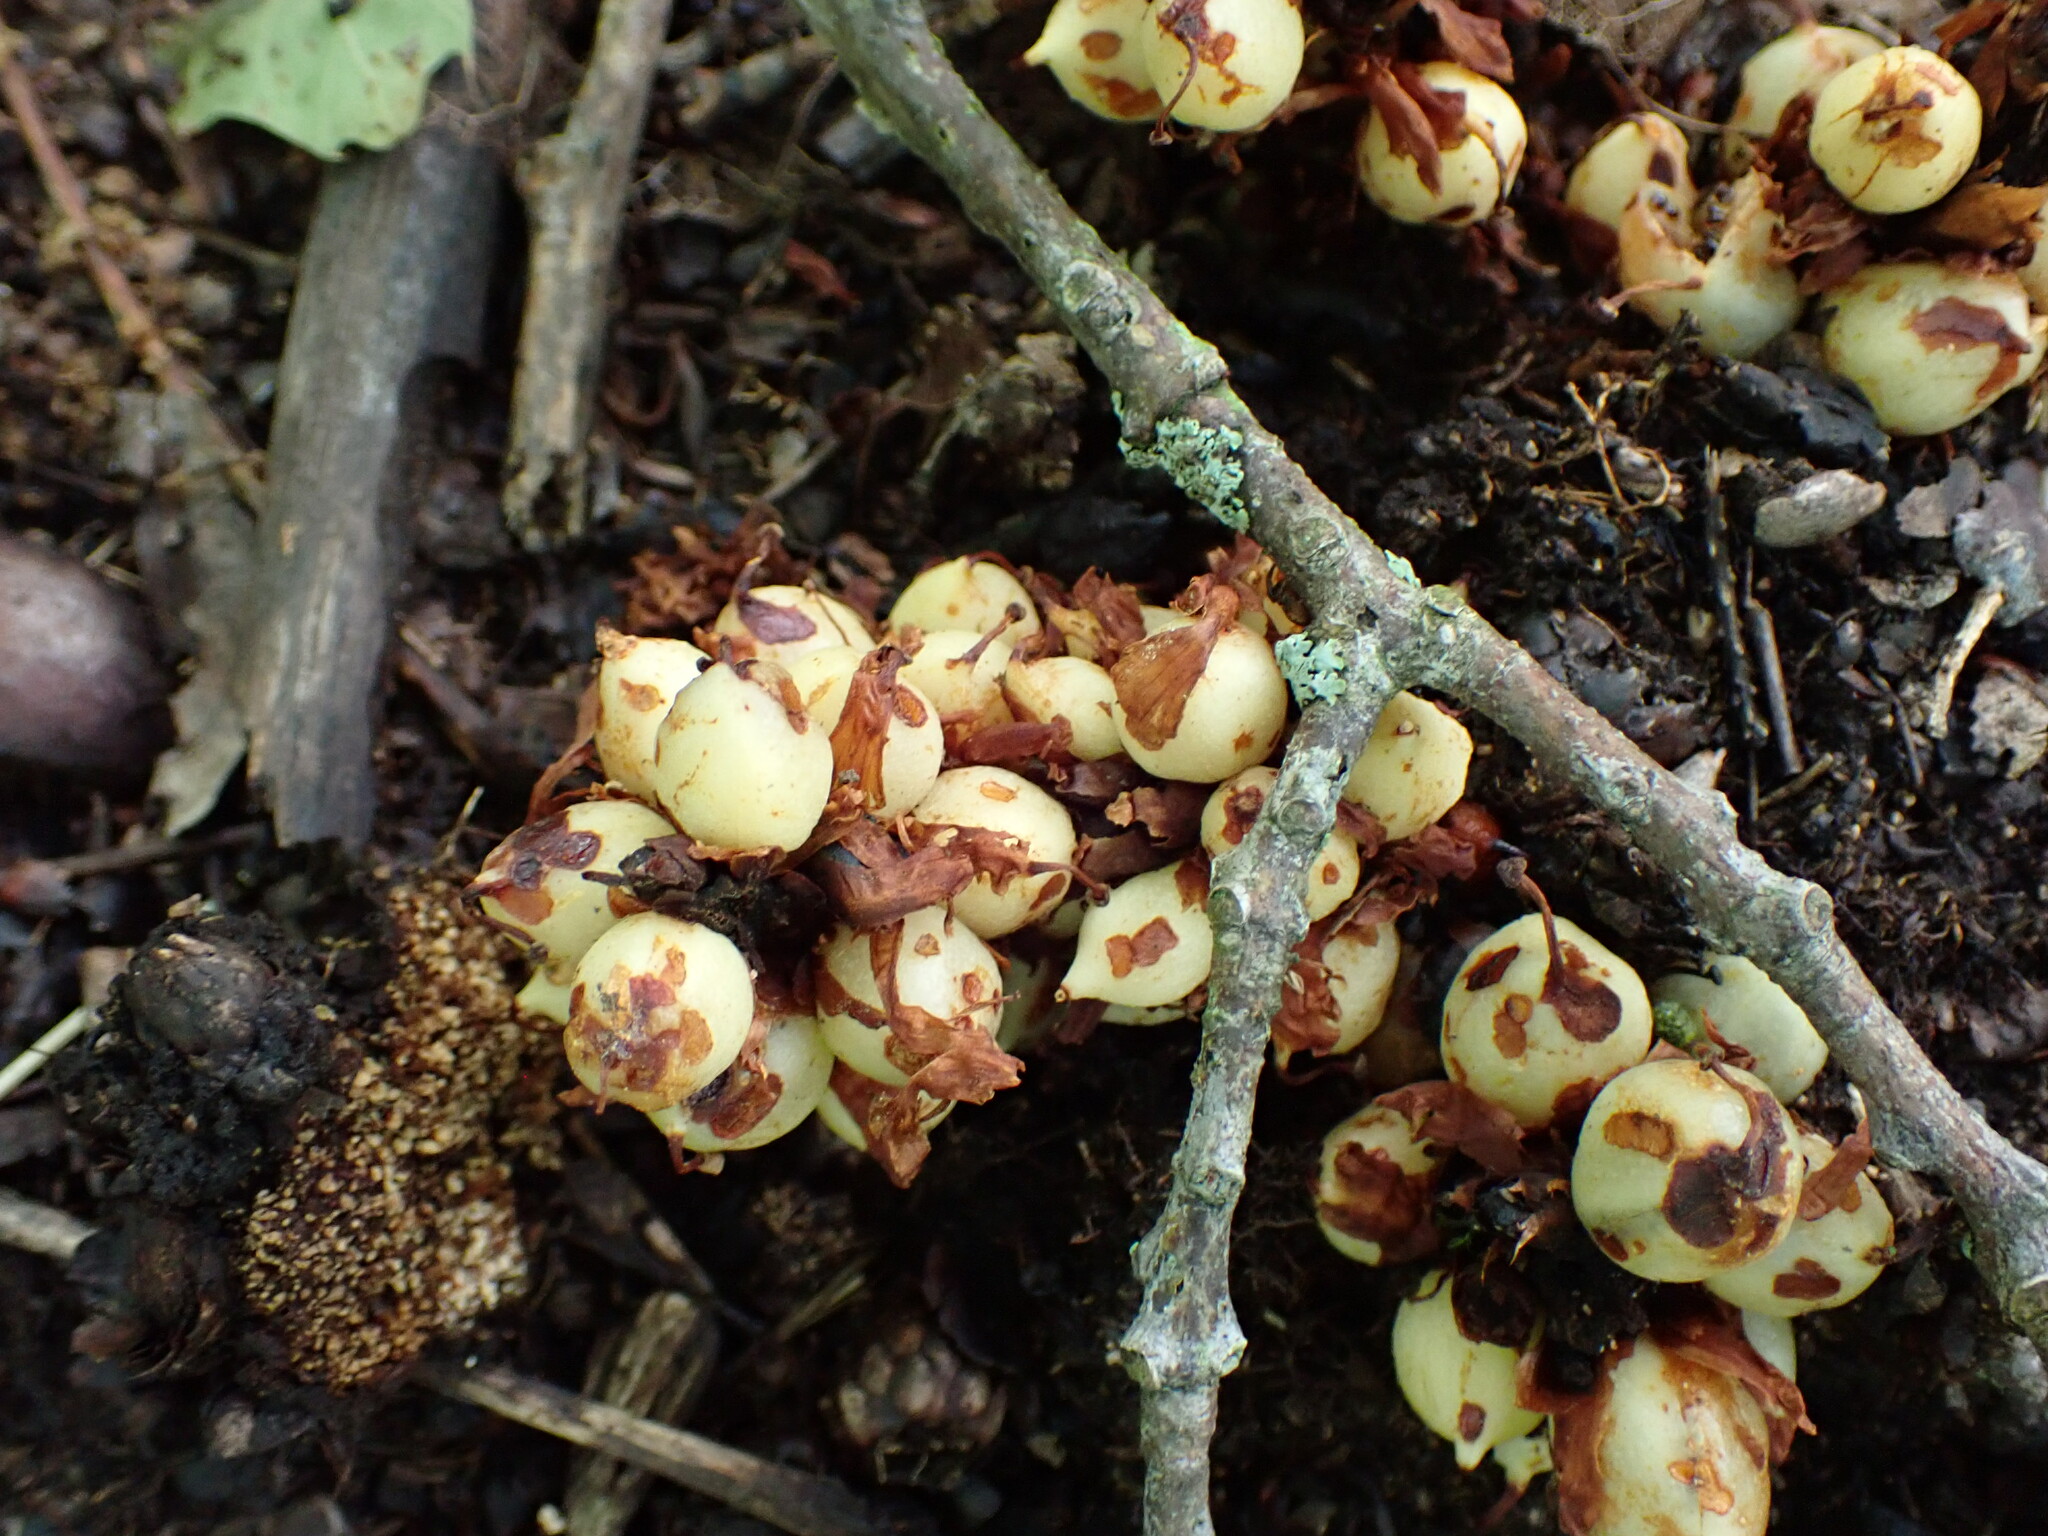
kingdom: Plantae
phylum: Tracheophyta
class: Magnoliopsida
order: Lamiales
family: Orobanchaceae
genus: Conopholis
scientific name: Conopholis americana
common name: American cancer-root
